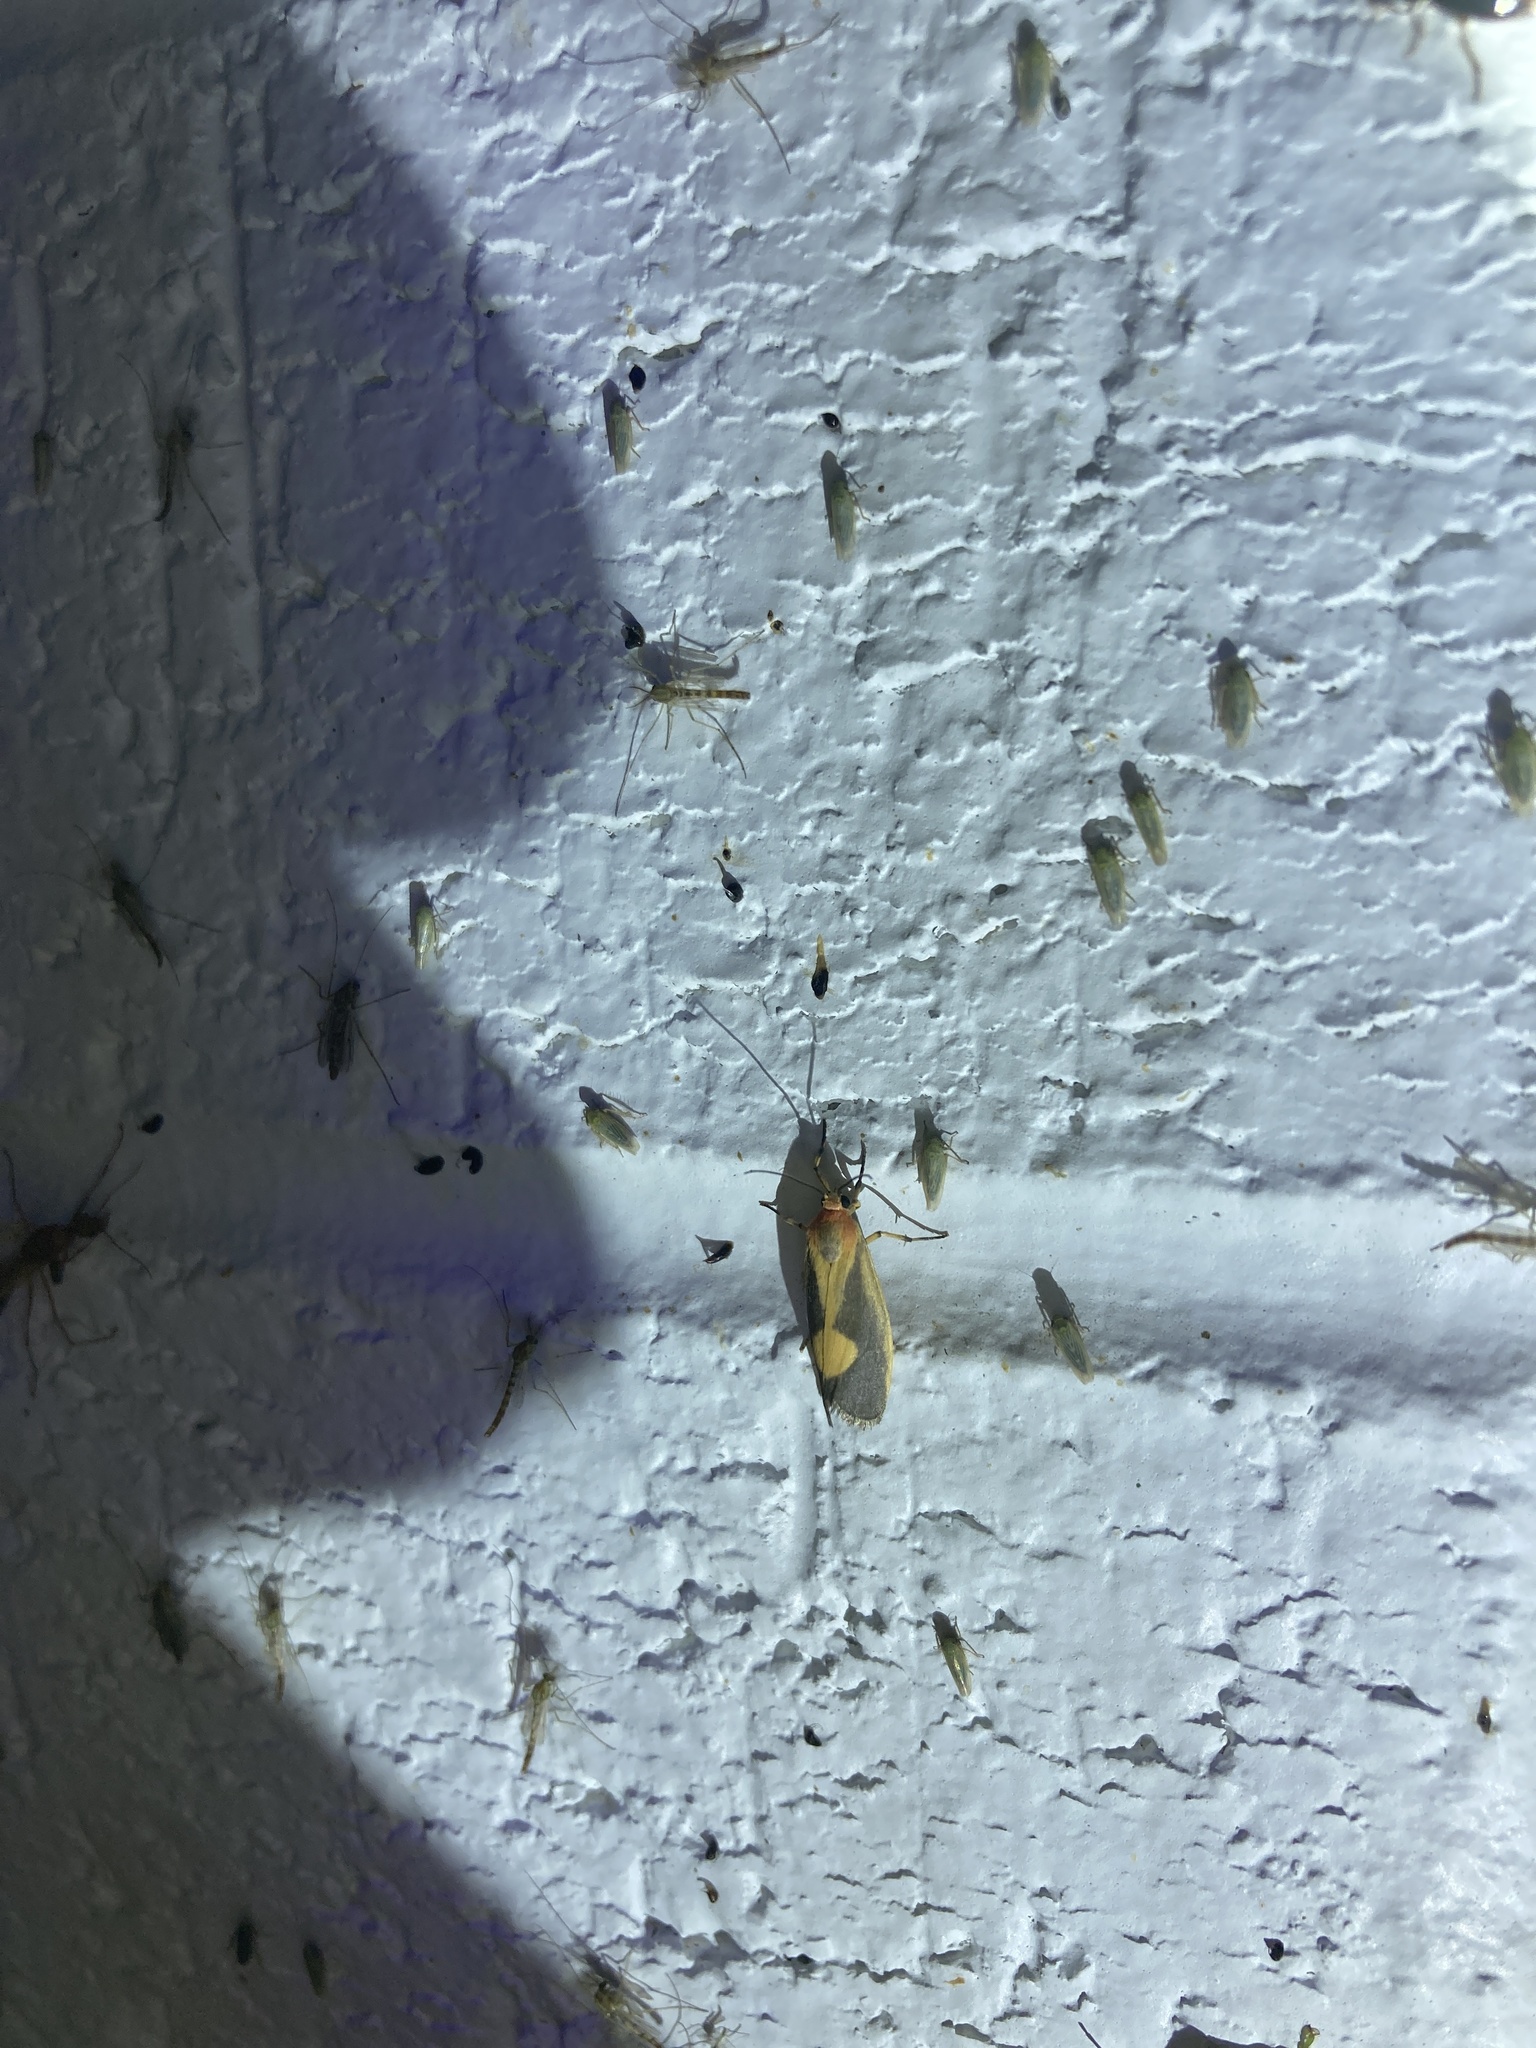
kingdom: Animalia
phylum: Arthropoda
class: Insecta
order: Lepidoptera
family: Erebidae
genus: Cisthene
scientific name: Cisthene plumbea
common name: Lead colored lichen moth
